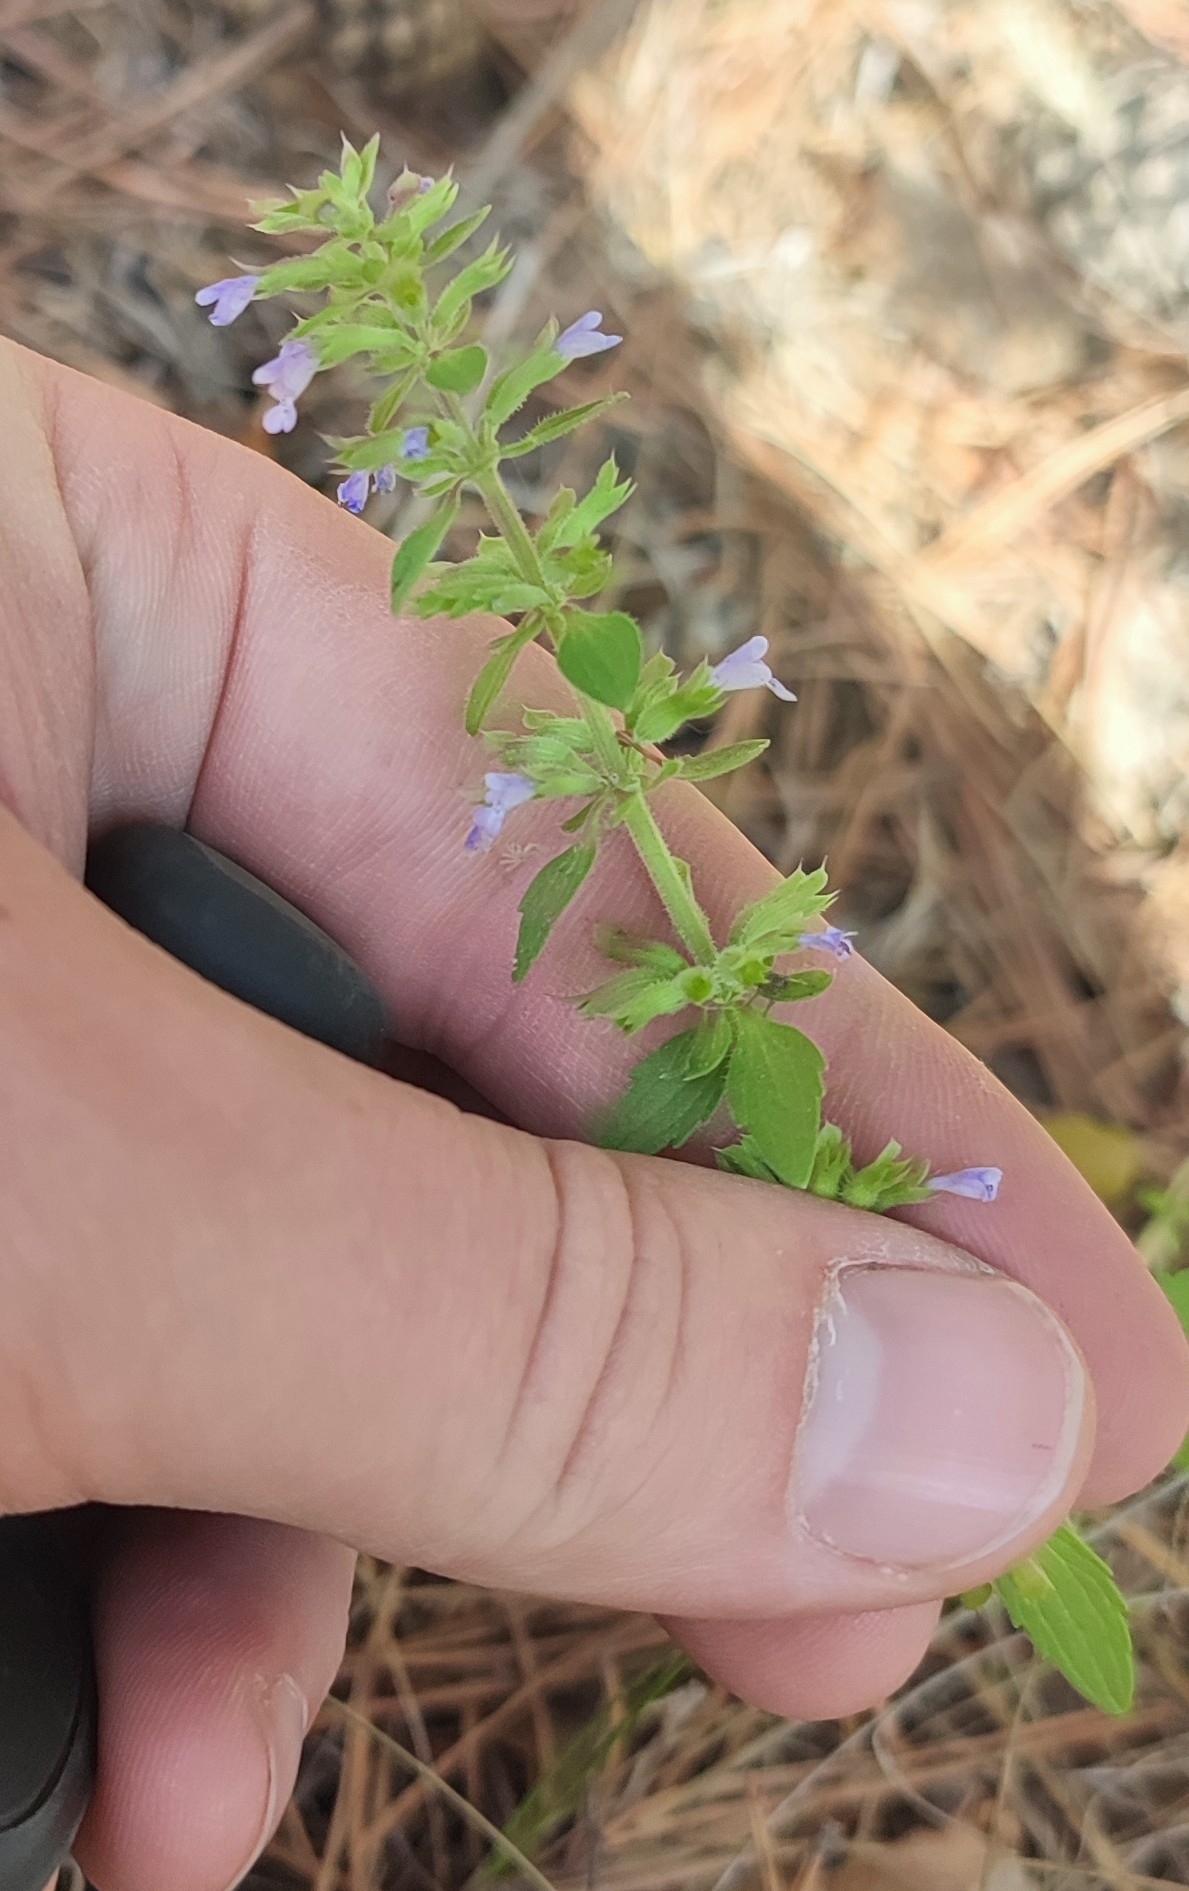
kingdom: Plantae
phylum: Tracheophyta
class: Magnoliopsida
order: Lamiales
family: Lamiaceae
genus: Dracocephalum
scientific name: Dracocephalum thymiflorum
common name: Thymeleaf dragonhead
